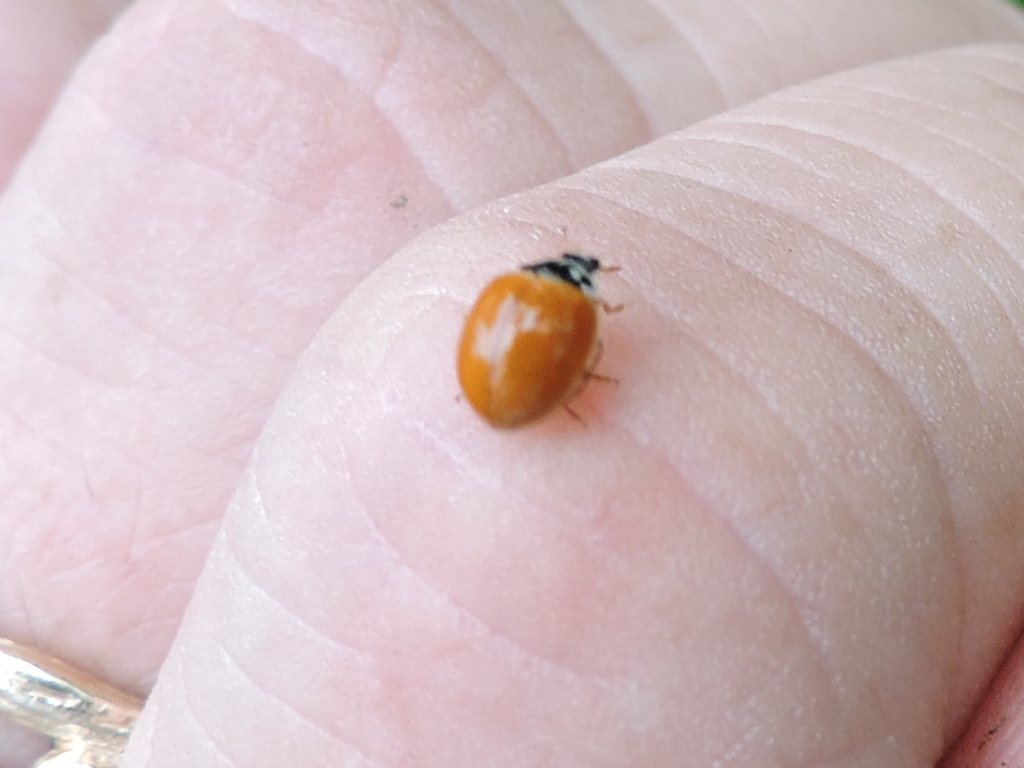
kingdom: Animalia
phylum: Arthropoda
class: Insecta
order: Coleoptera
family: Coccinellidae
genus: Cycloneda
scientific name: Cycloneda munda
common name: Polished lady beetle
